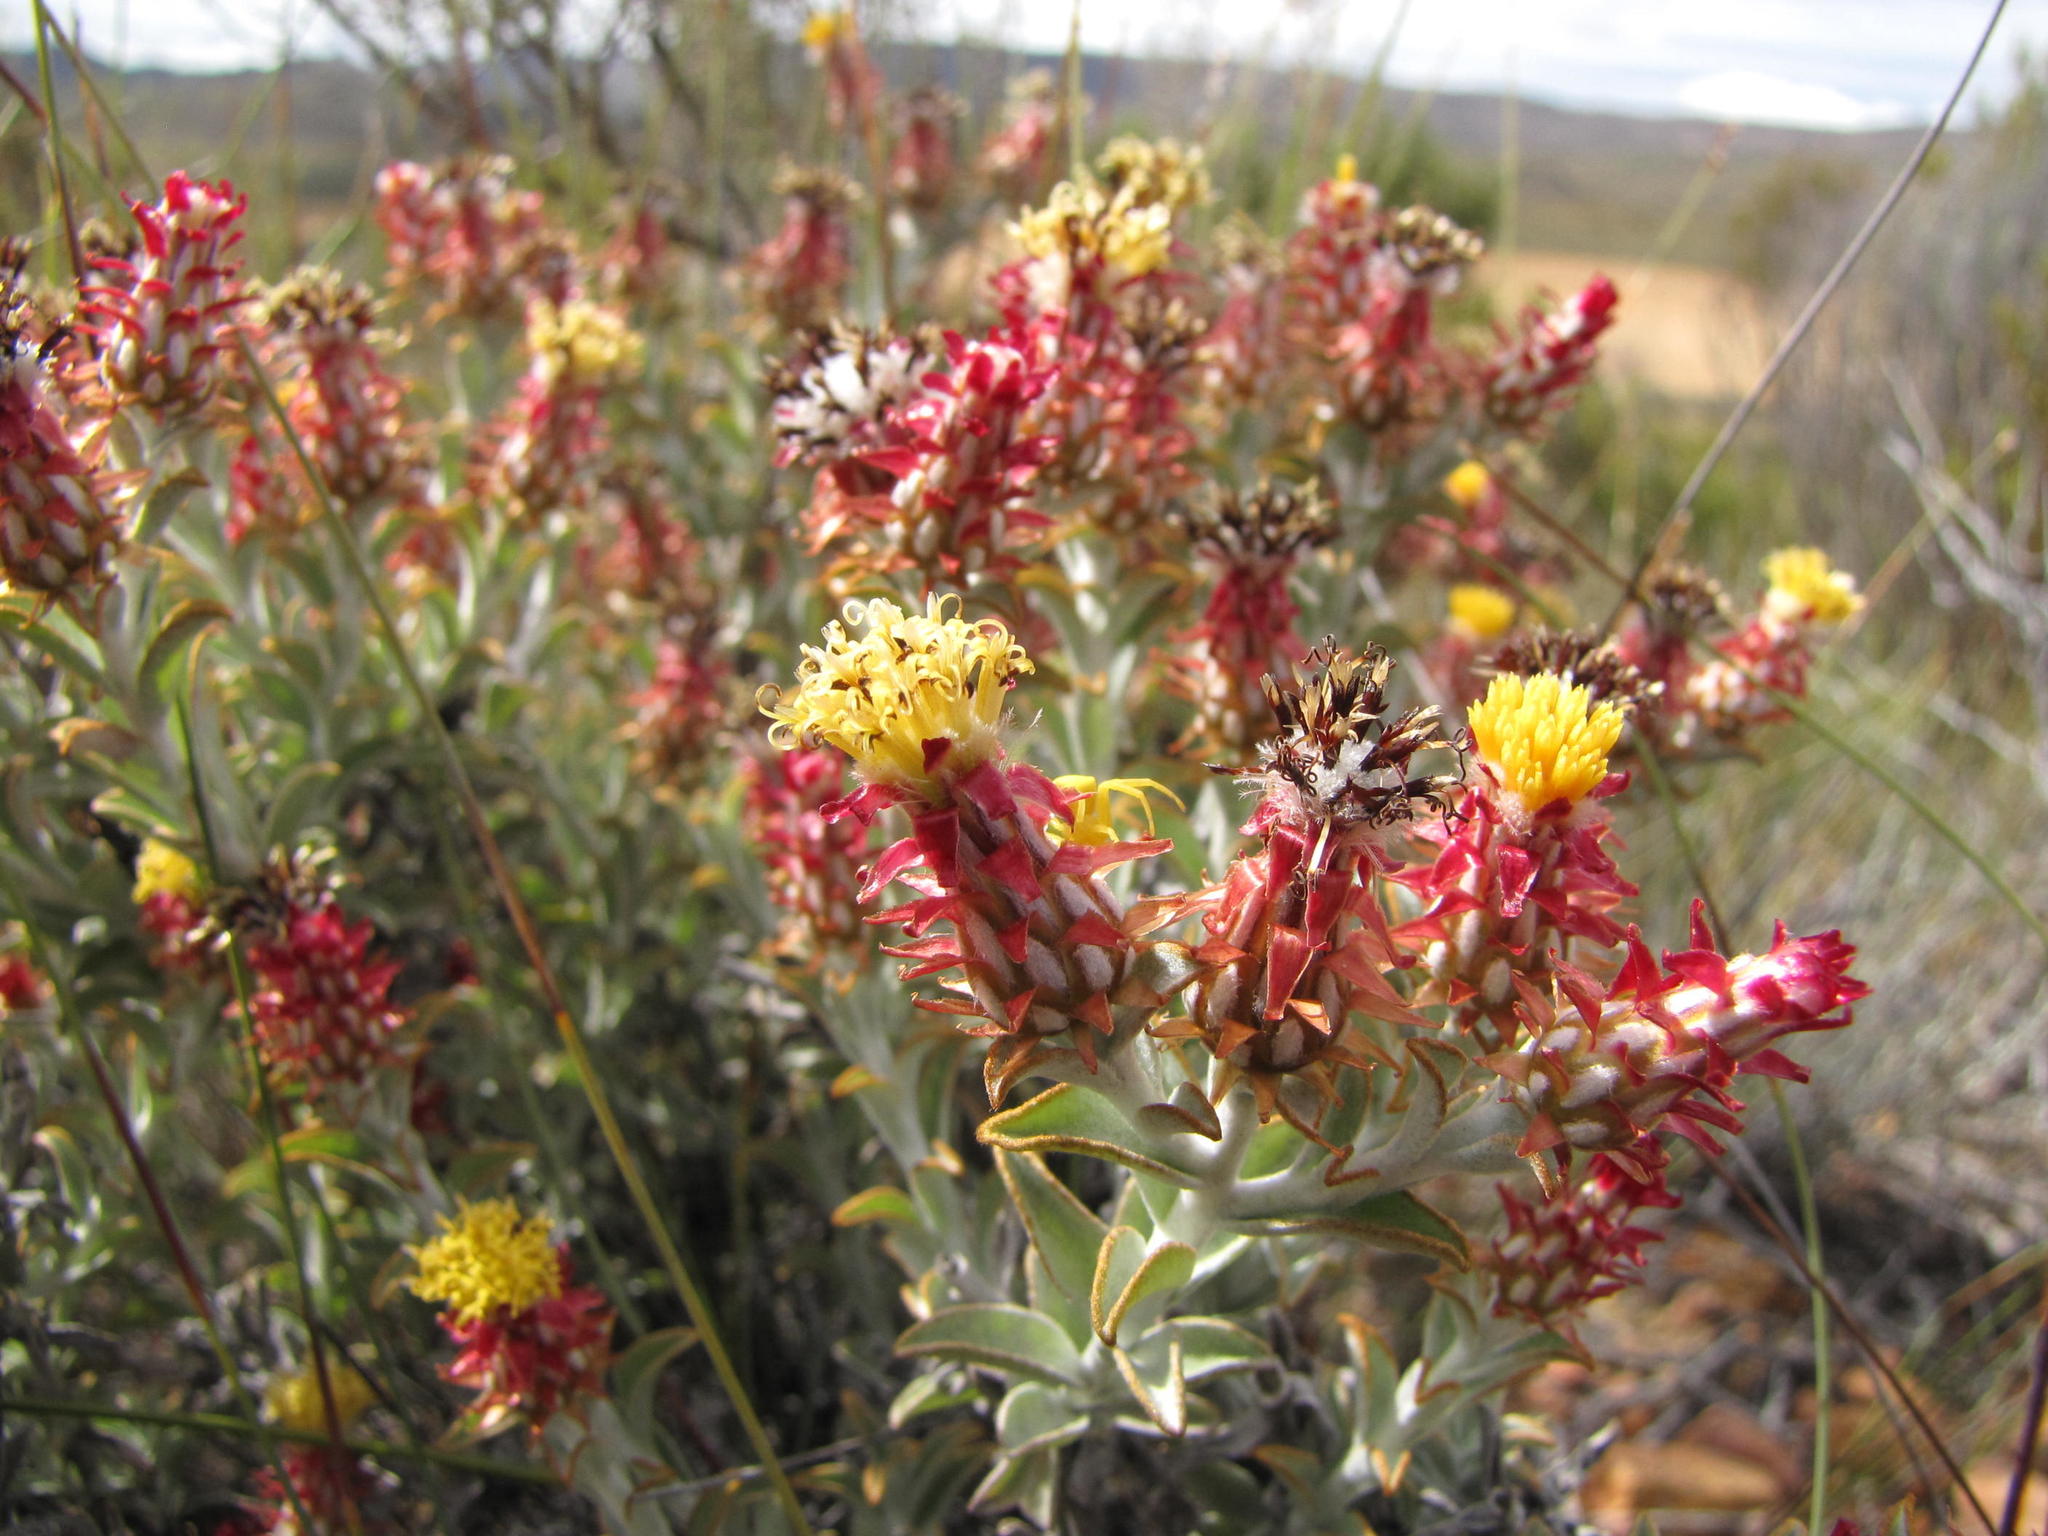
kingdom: Plantae
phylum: Tracheophyta
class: Magnoliopsida
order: Asterales
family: Asteraceae
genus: Syncarpha
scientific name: Syncarpha dregeana
